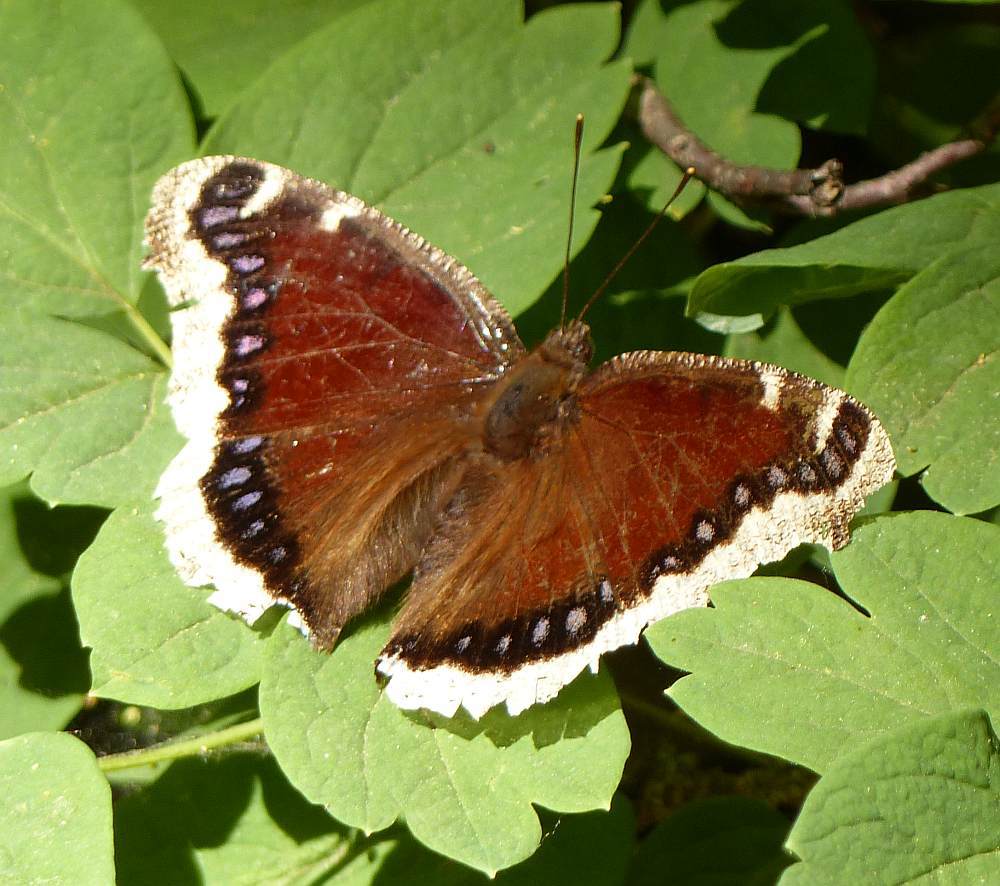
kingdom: Animalia
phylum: Arthropoda
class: Insecta
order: Lepidoptera
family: Nymphalidae
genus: Nymphalis
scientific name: Nymphalis antiopa
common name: Camberwell beauty
